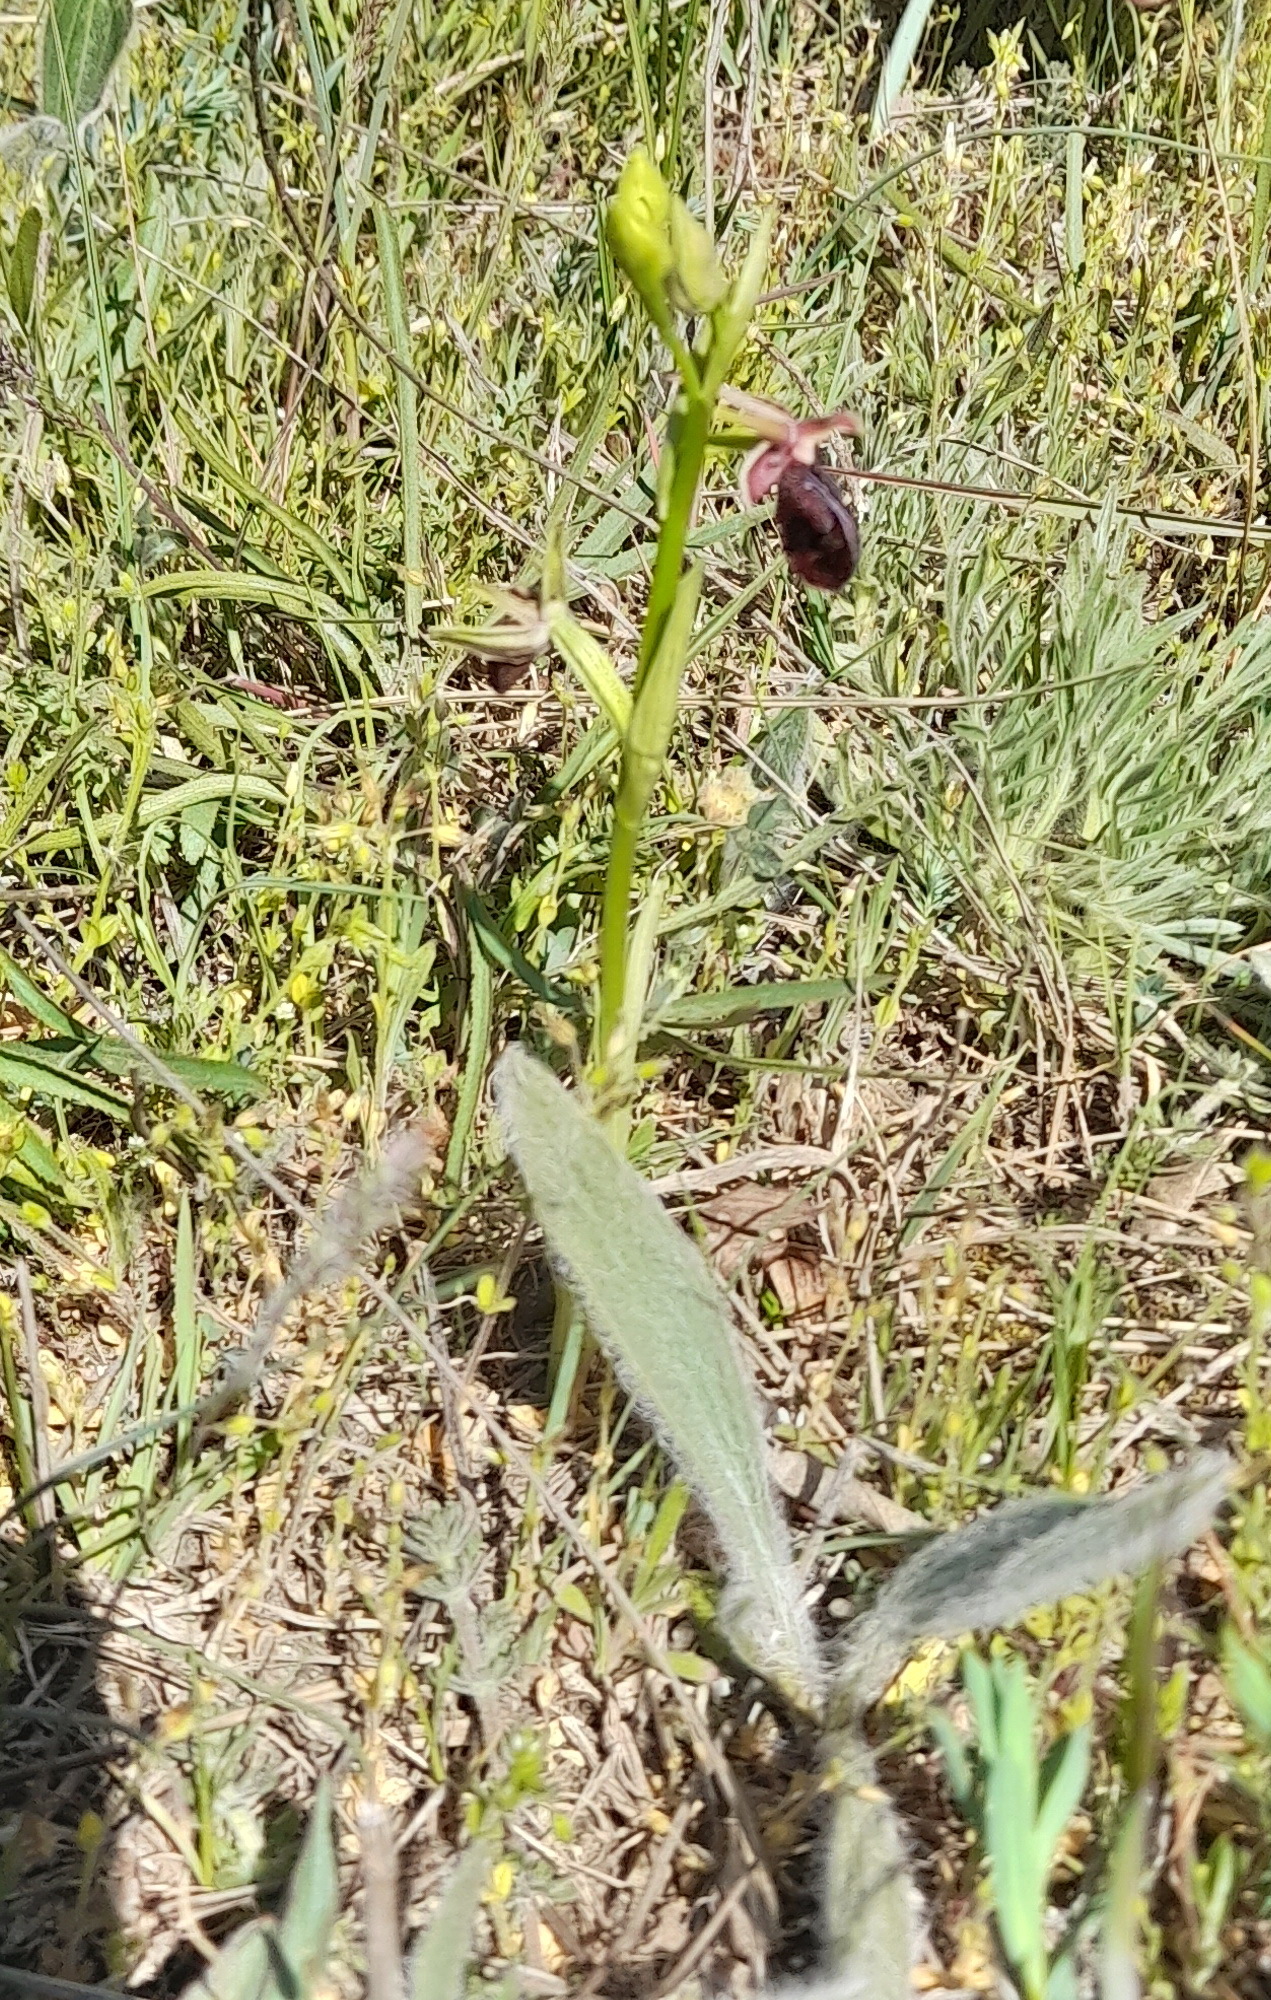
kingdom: Plantae
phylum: Tracheophyta
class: Liliopsida
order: Asparagales
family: Orchidaceae
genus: Ophrys
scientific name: Ophrys sphegodes
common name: Early spider-orchid
